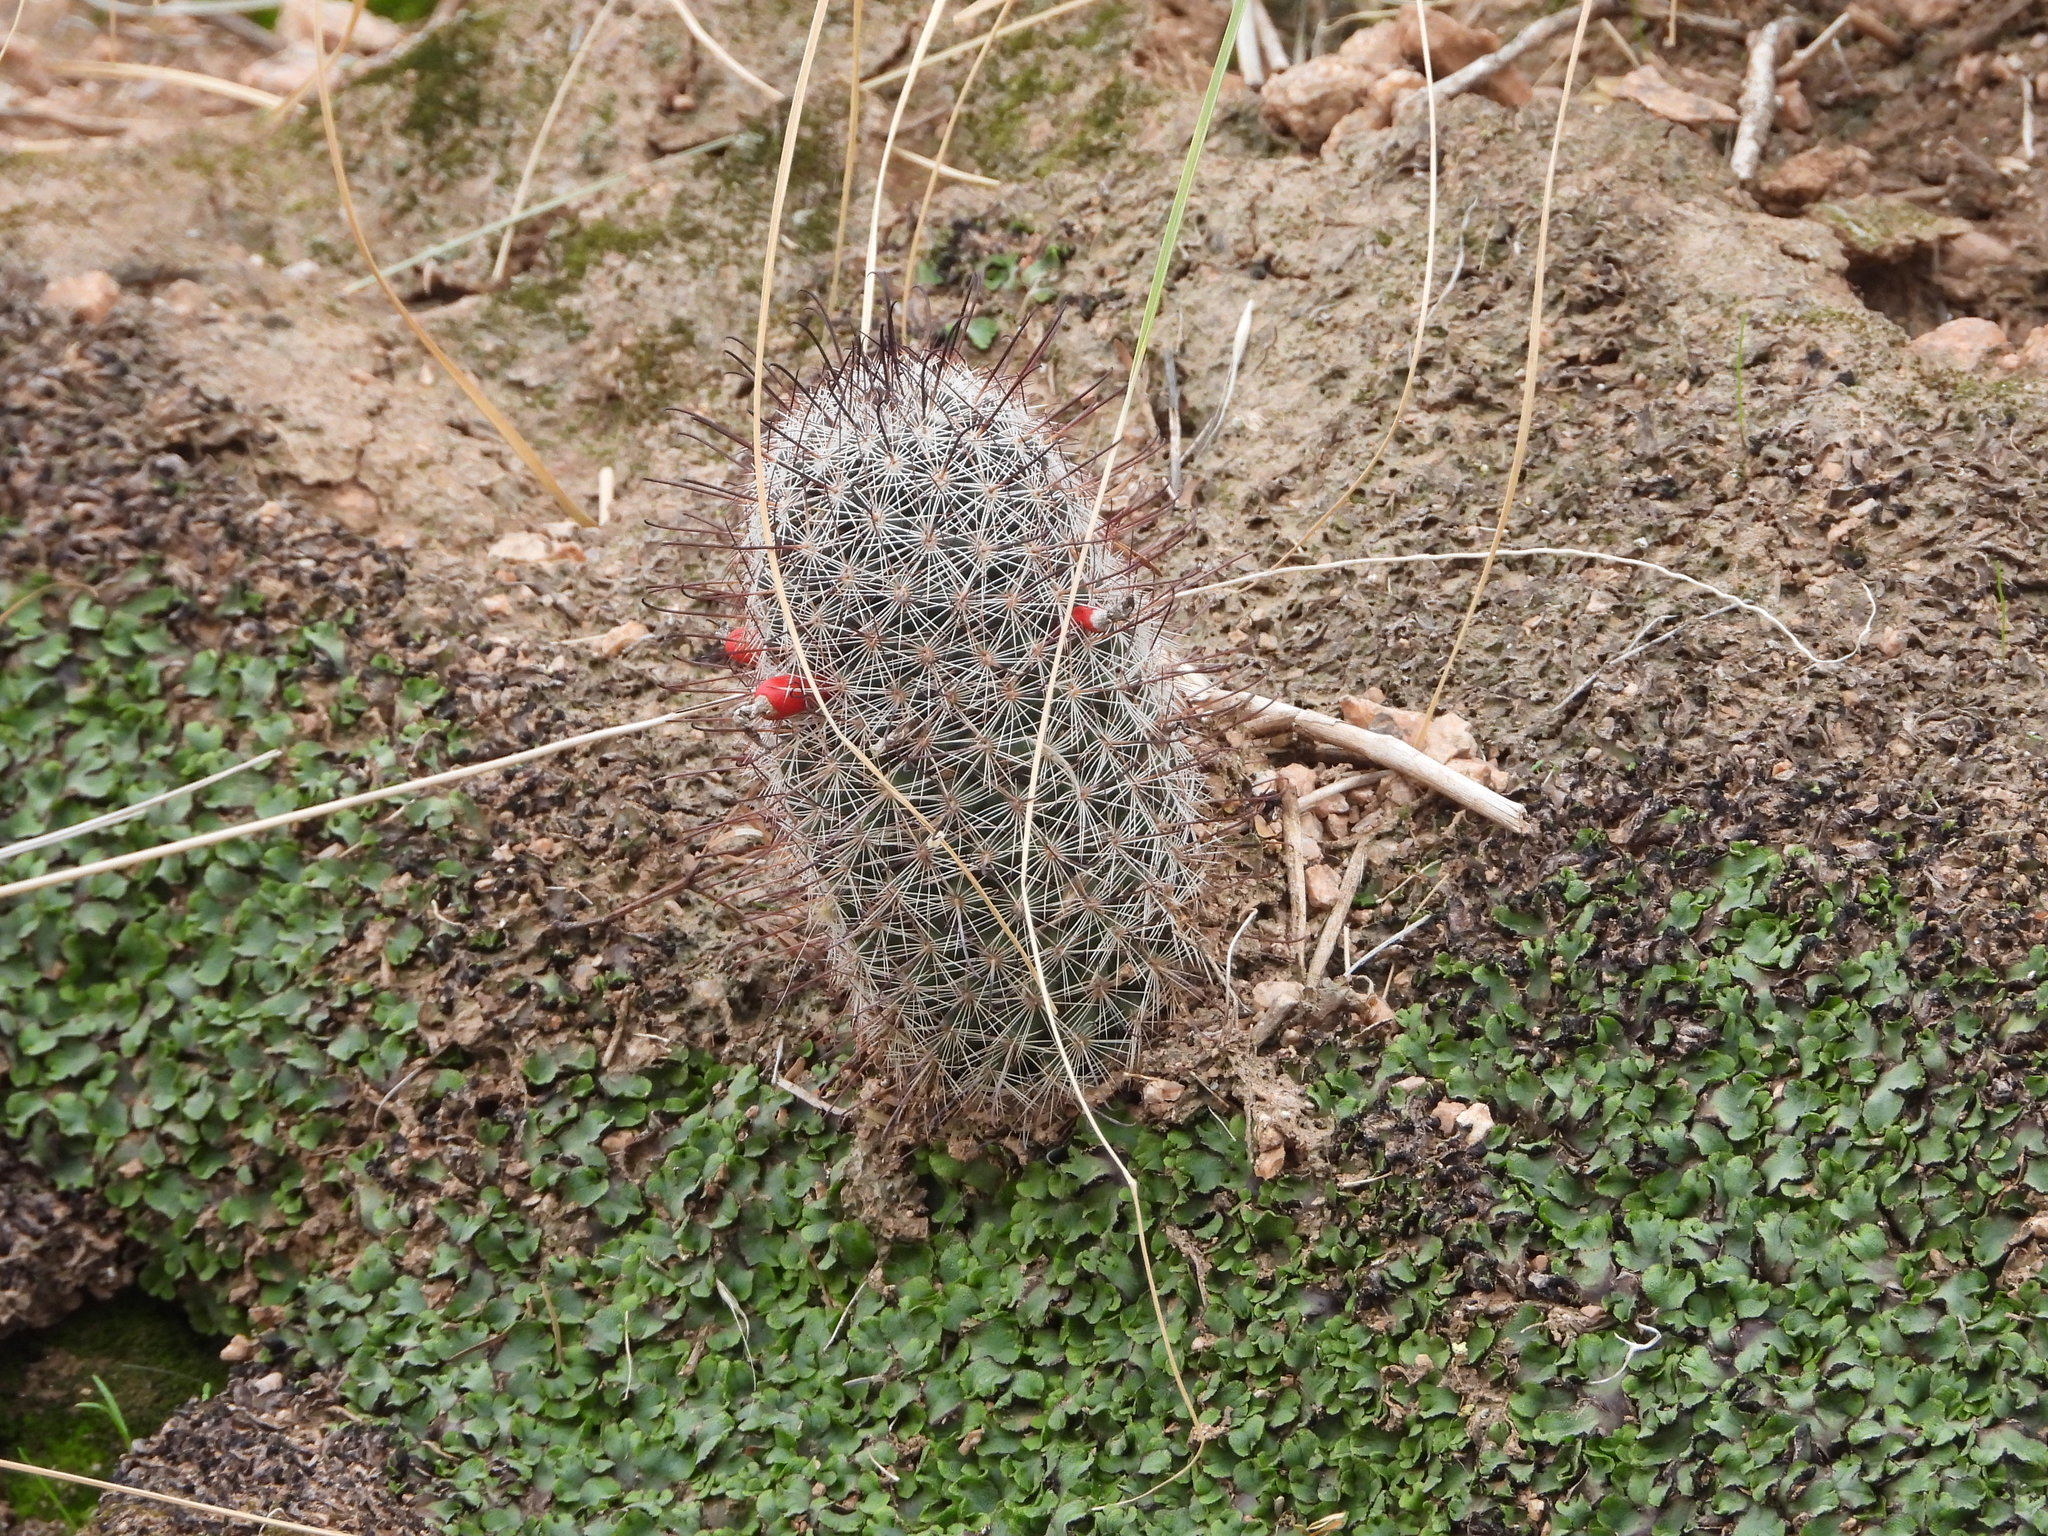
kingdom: Plantae
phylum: Tracheophyta
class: Magnoliopsida
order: Caryophyllales
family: Cactaceae
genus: Cochemiea
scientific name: Cochemiea grahamii
